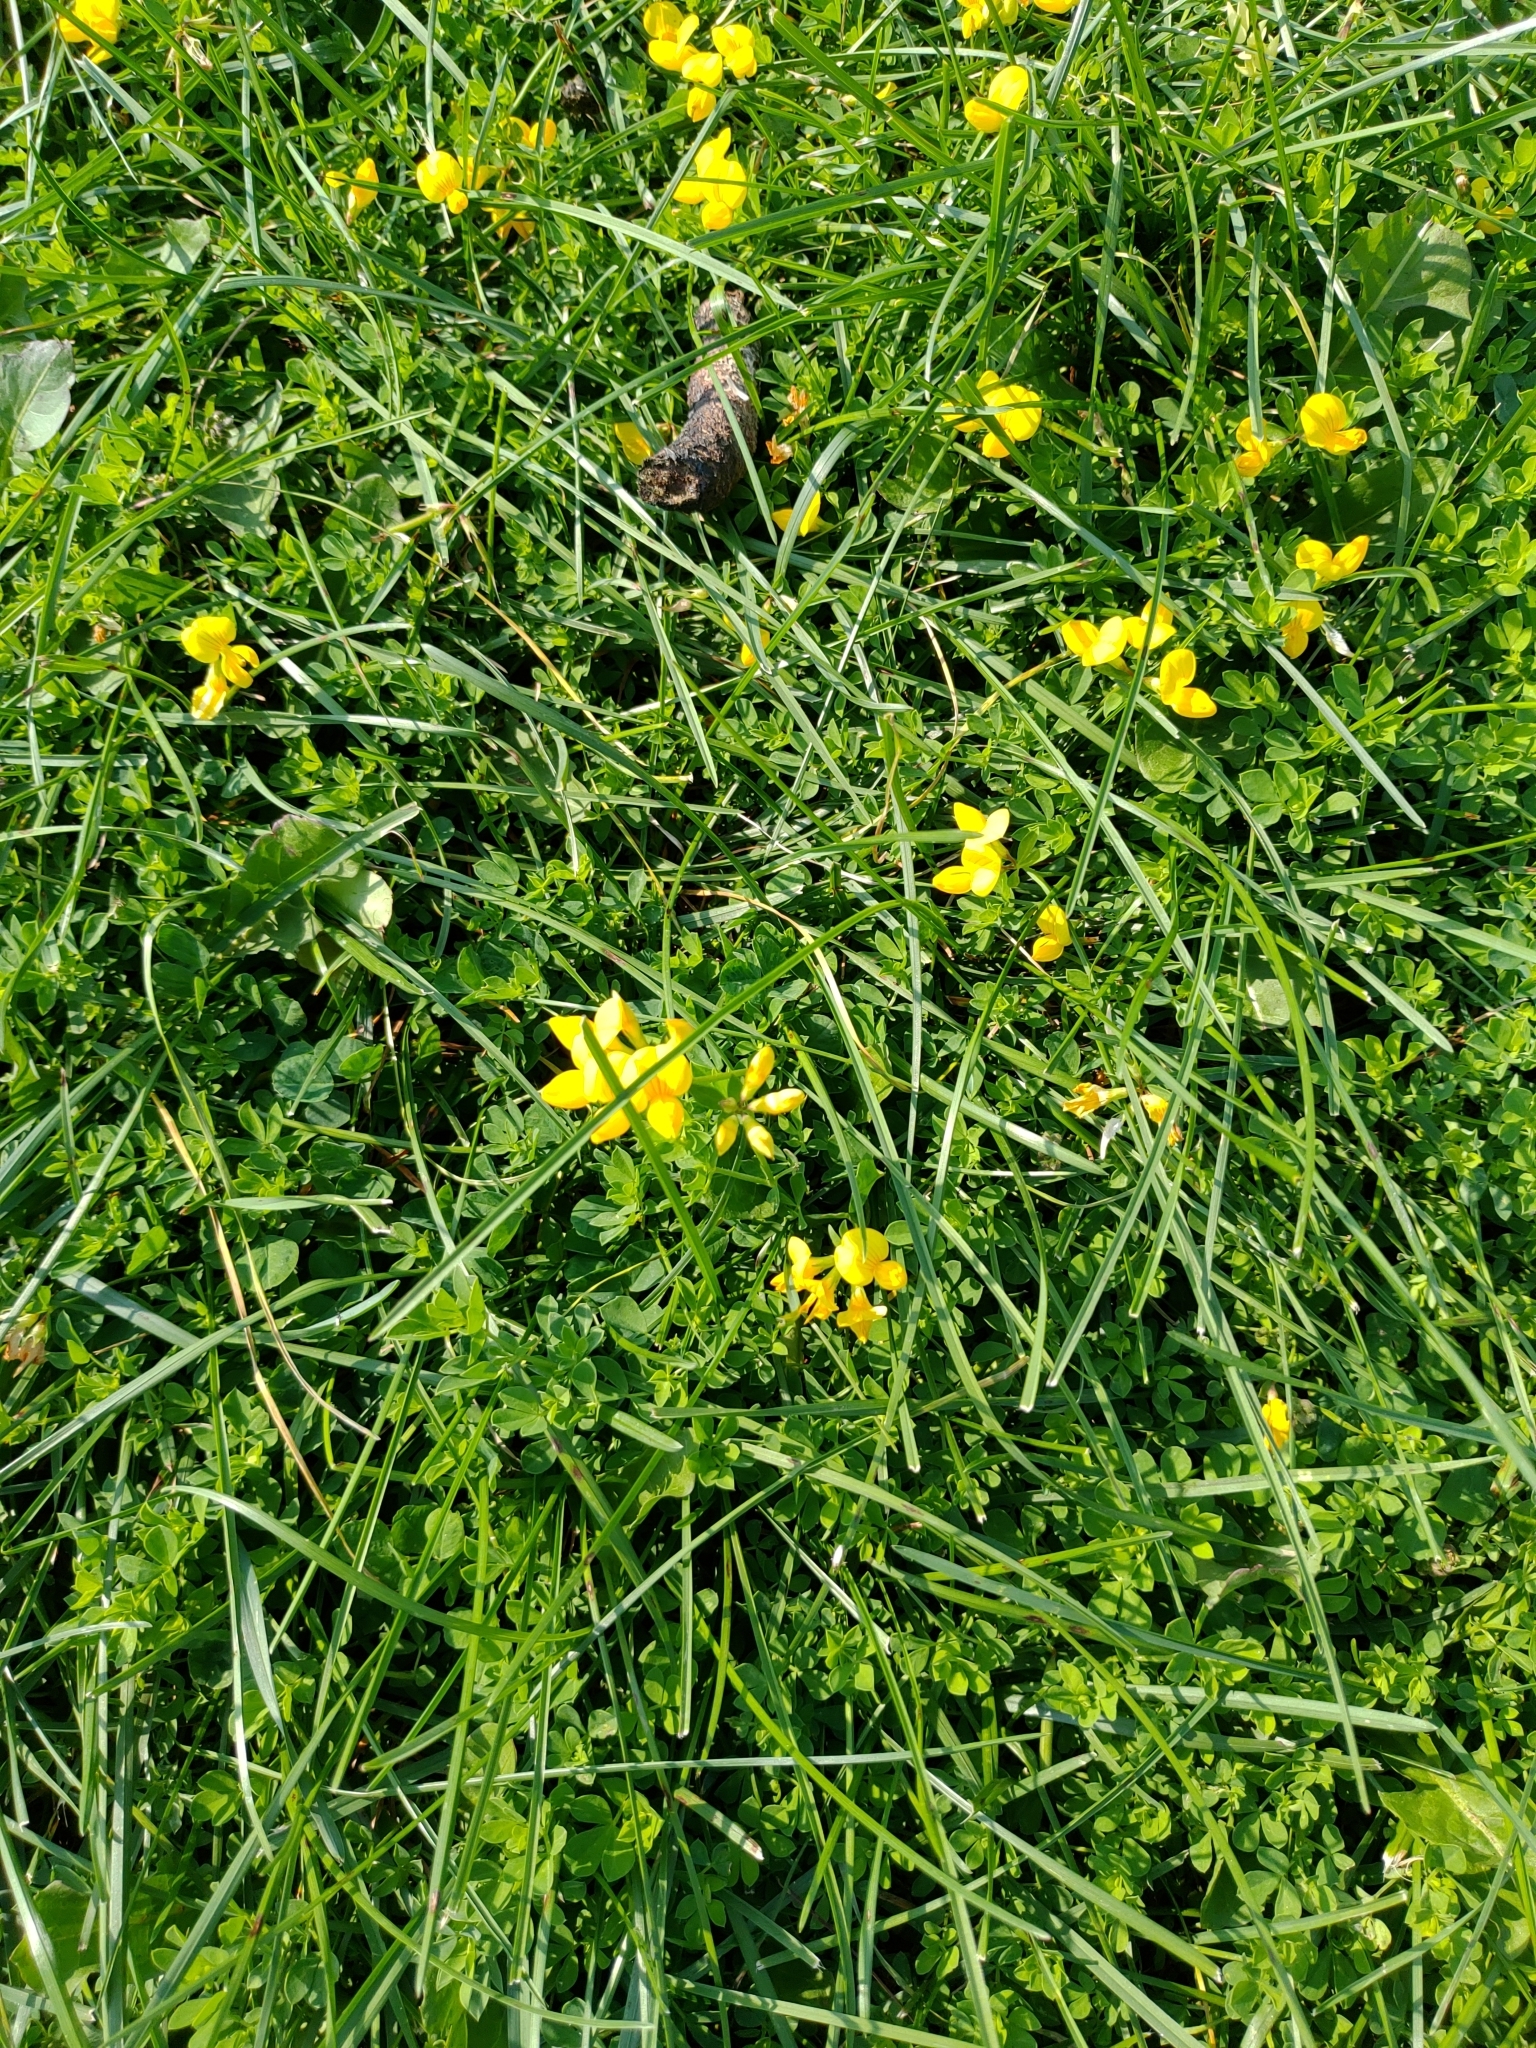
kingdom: Plantae
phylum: Tracheophyta
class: Magnoliopsida
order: Fabales
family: Fabaceae
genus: Lotus
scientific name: Lotus corniculatus
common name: Common bird's-foot-trefoil
